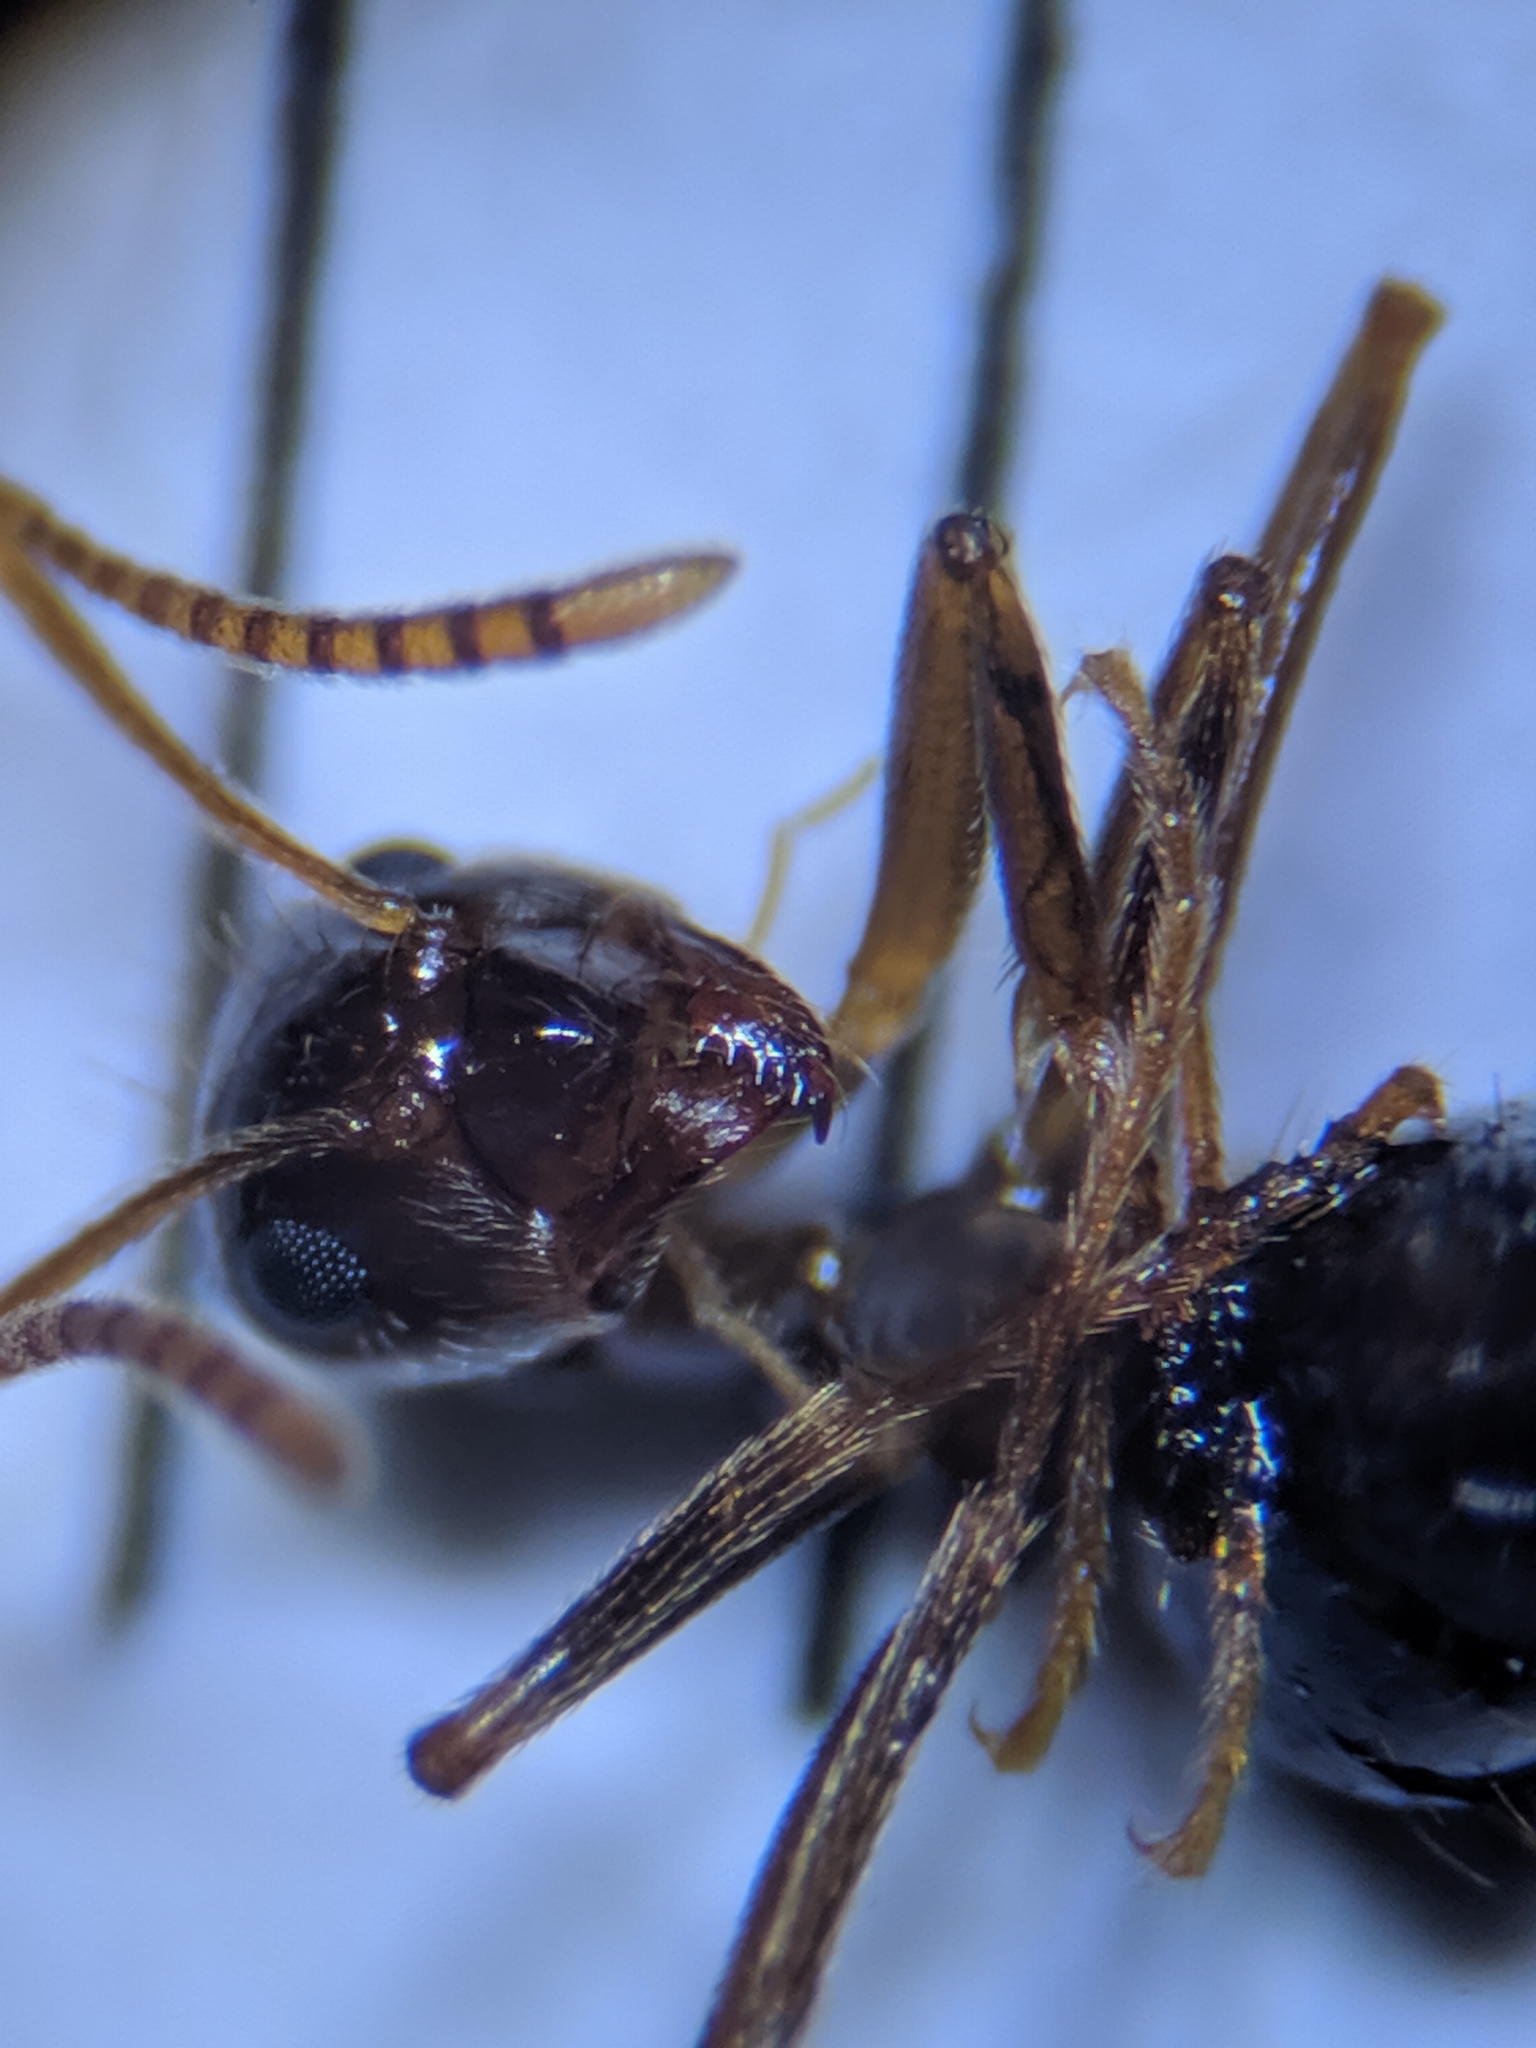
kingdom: Animalia
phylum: Arthropoda
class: Insecta
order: Hymenoptera
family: Formicidae
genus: Prenolepis
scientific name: Prenolepis nitens
